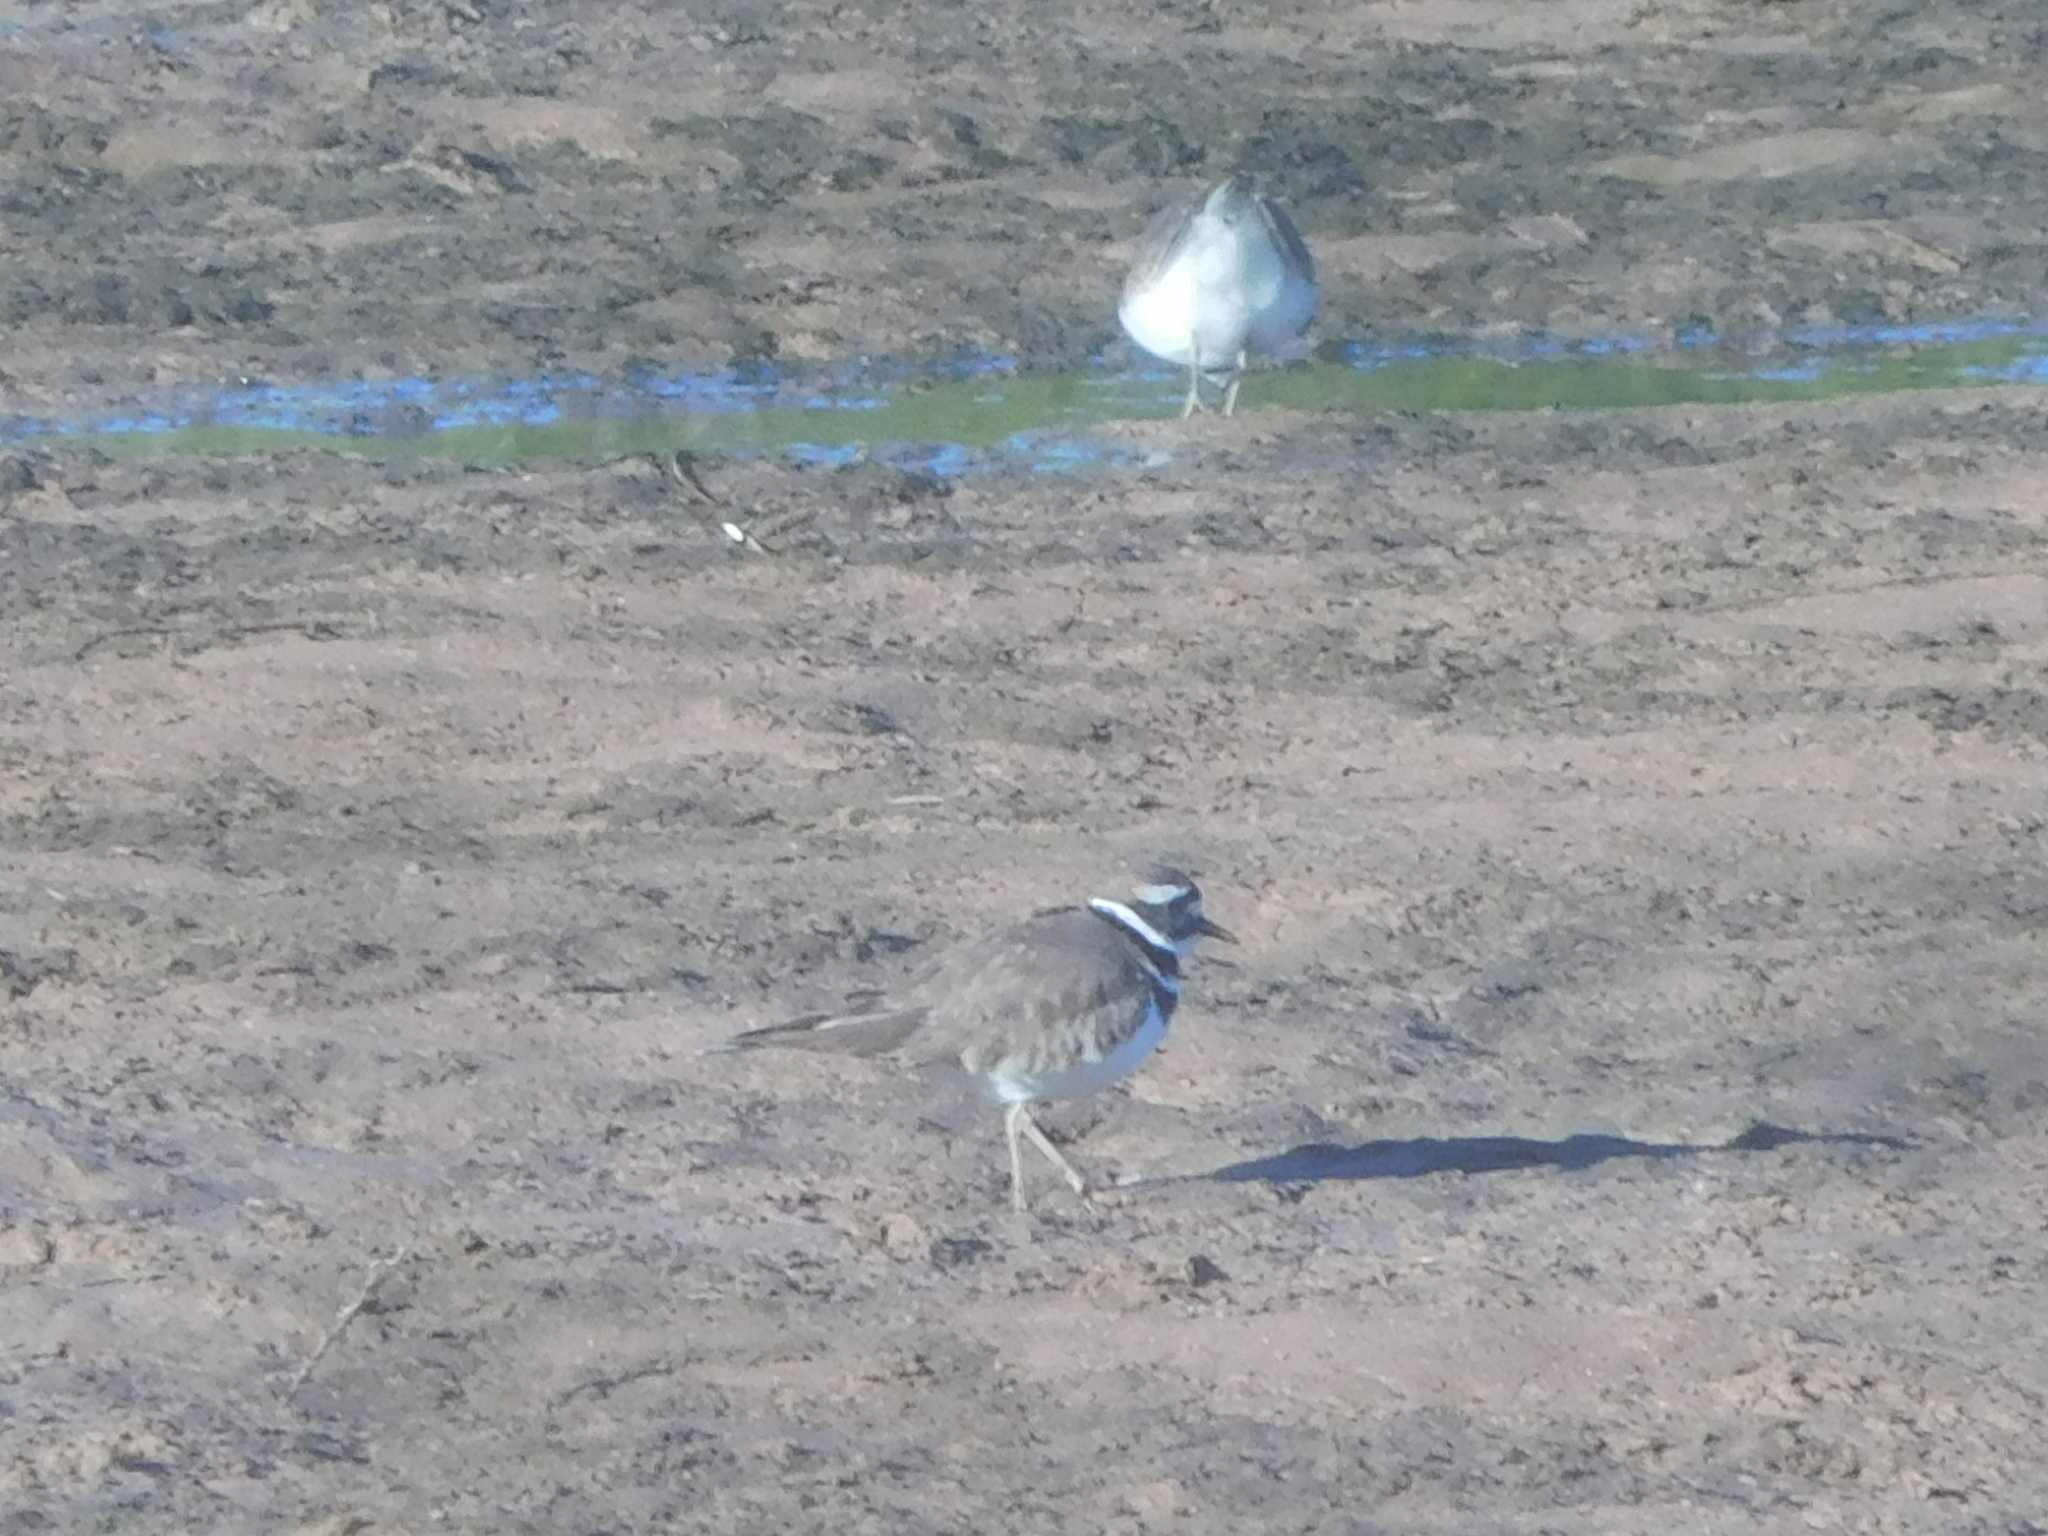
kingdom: Animalia
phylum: Chordata
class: Aves
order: Charadriiformes
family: Charadriidae
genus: Charadrius
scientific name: Charadrius vociferus
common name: Killdeer
